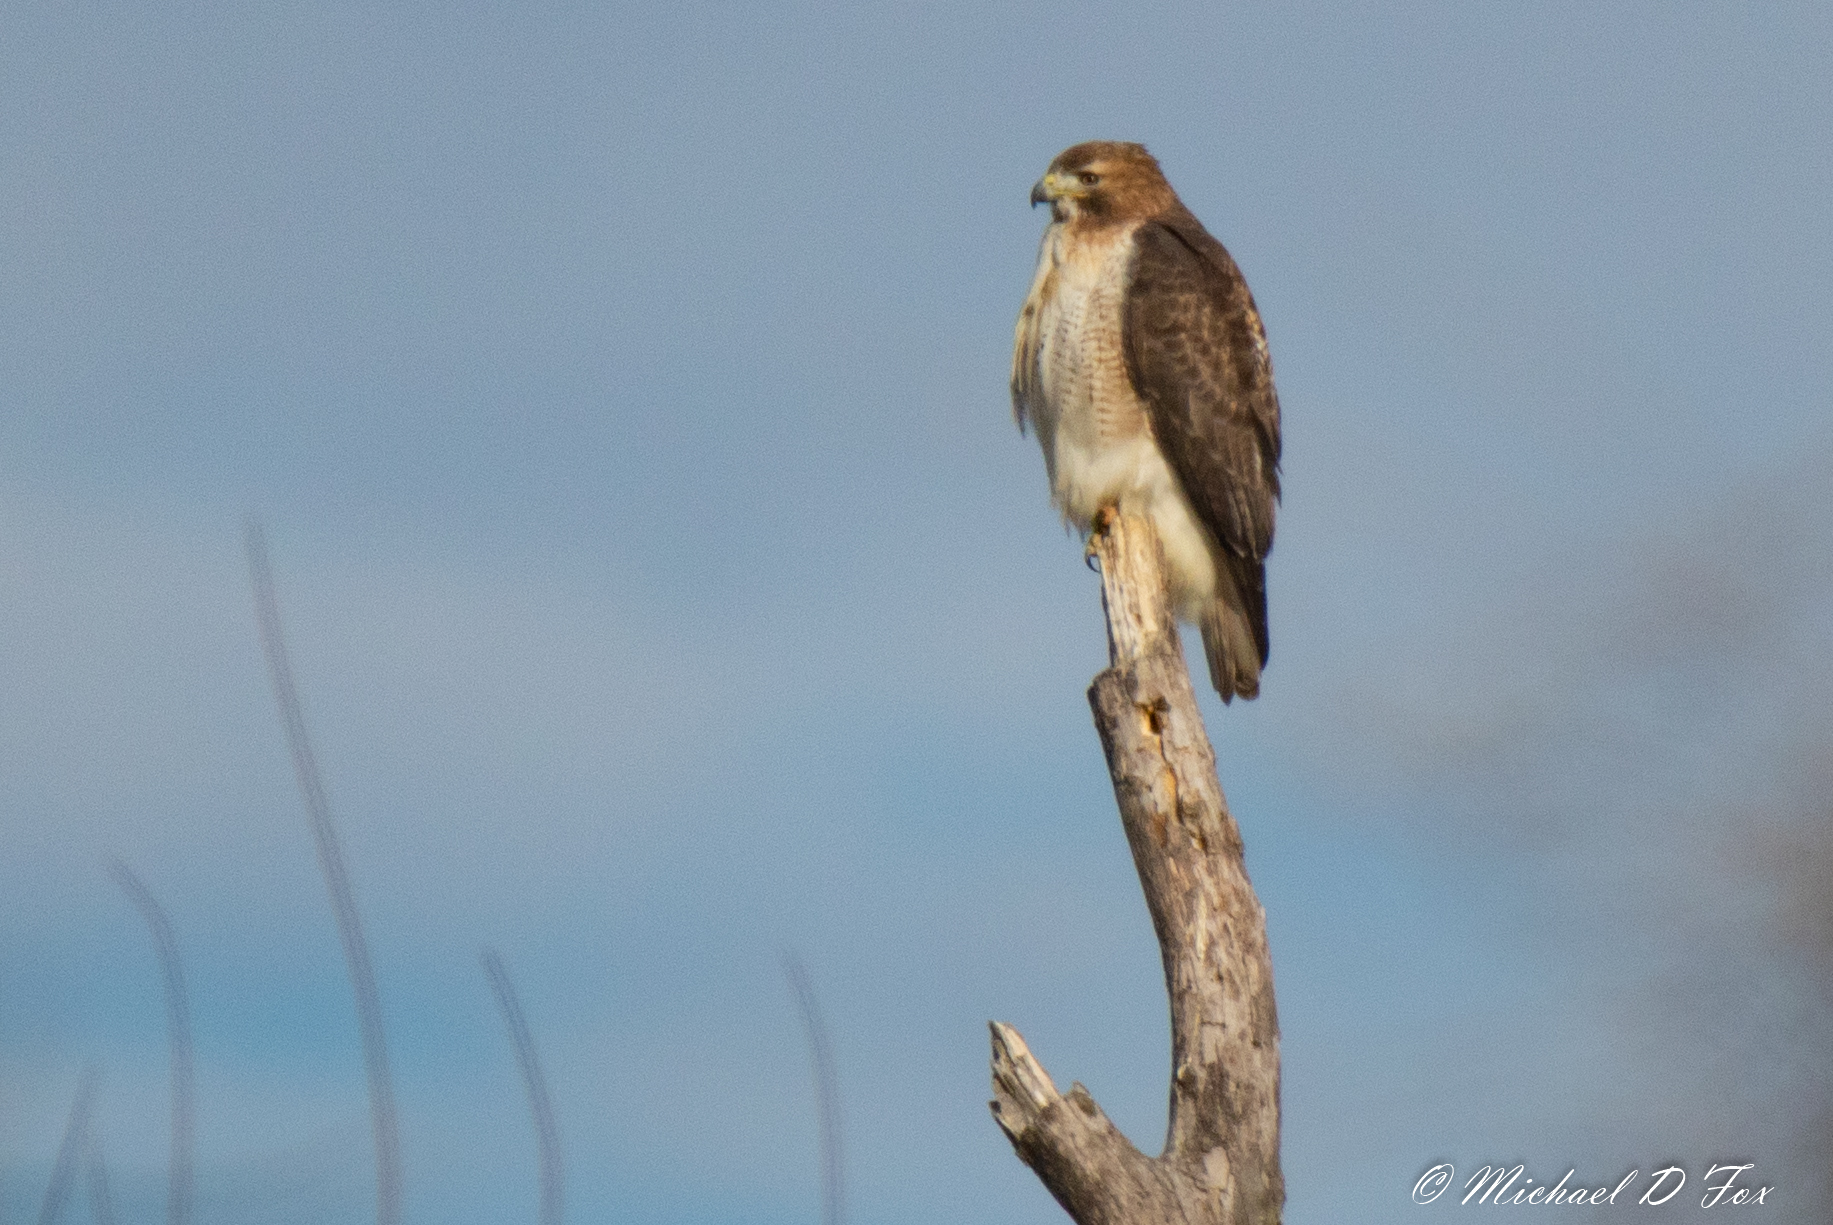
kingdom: Animalia
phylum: Chordata
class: Aves
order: Accipitriformes
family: Accipitridae
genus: Buteo
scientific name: Buteo jamaicensis
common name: Red-tailed hawk
